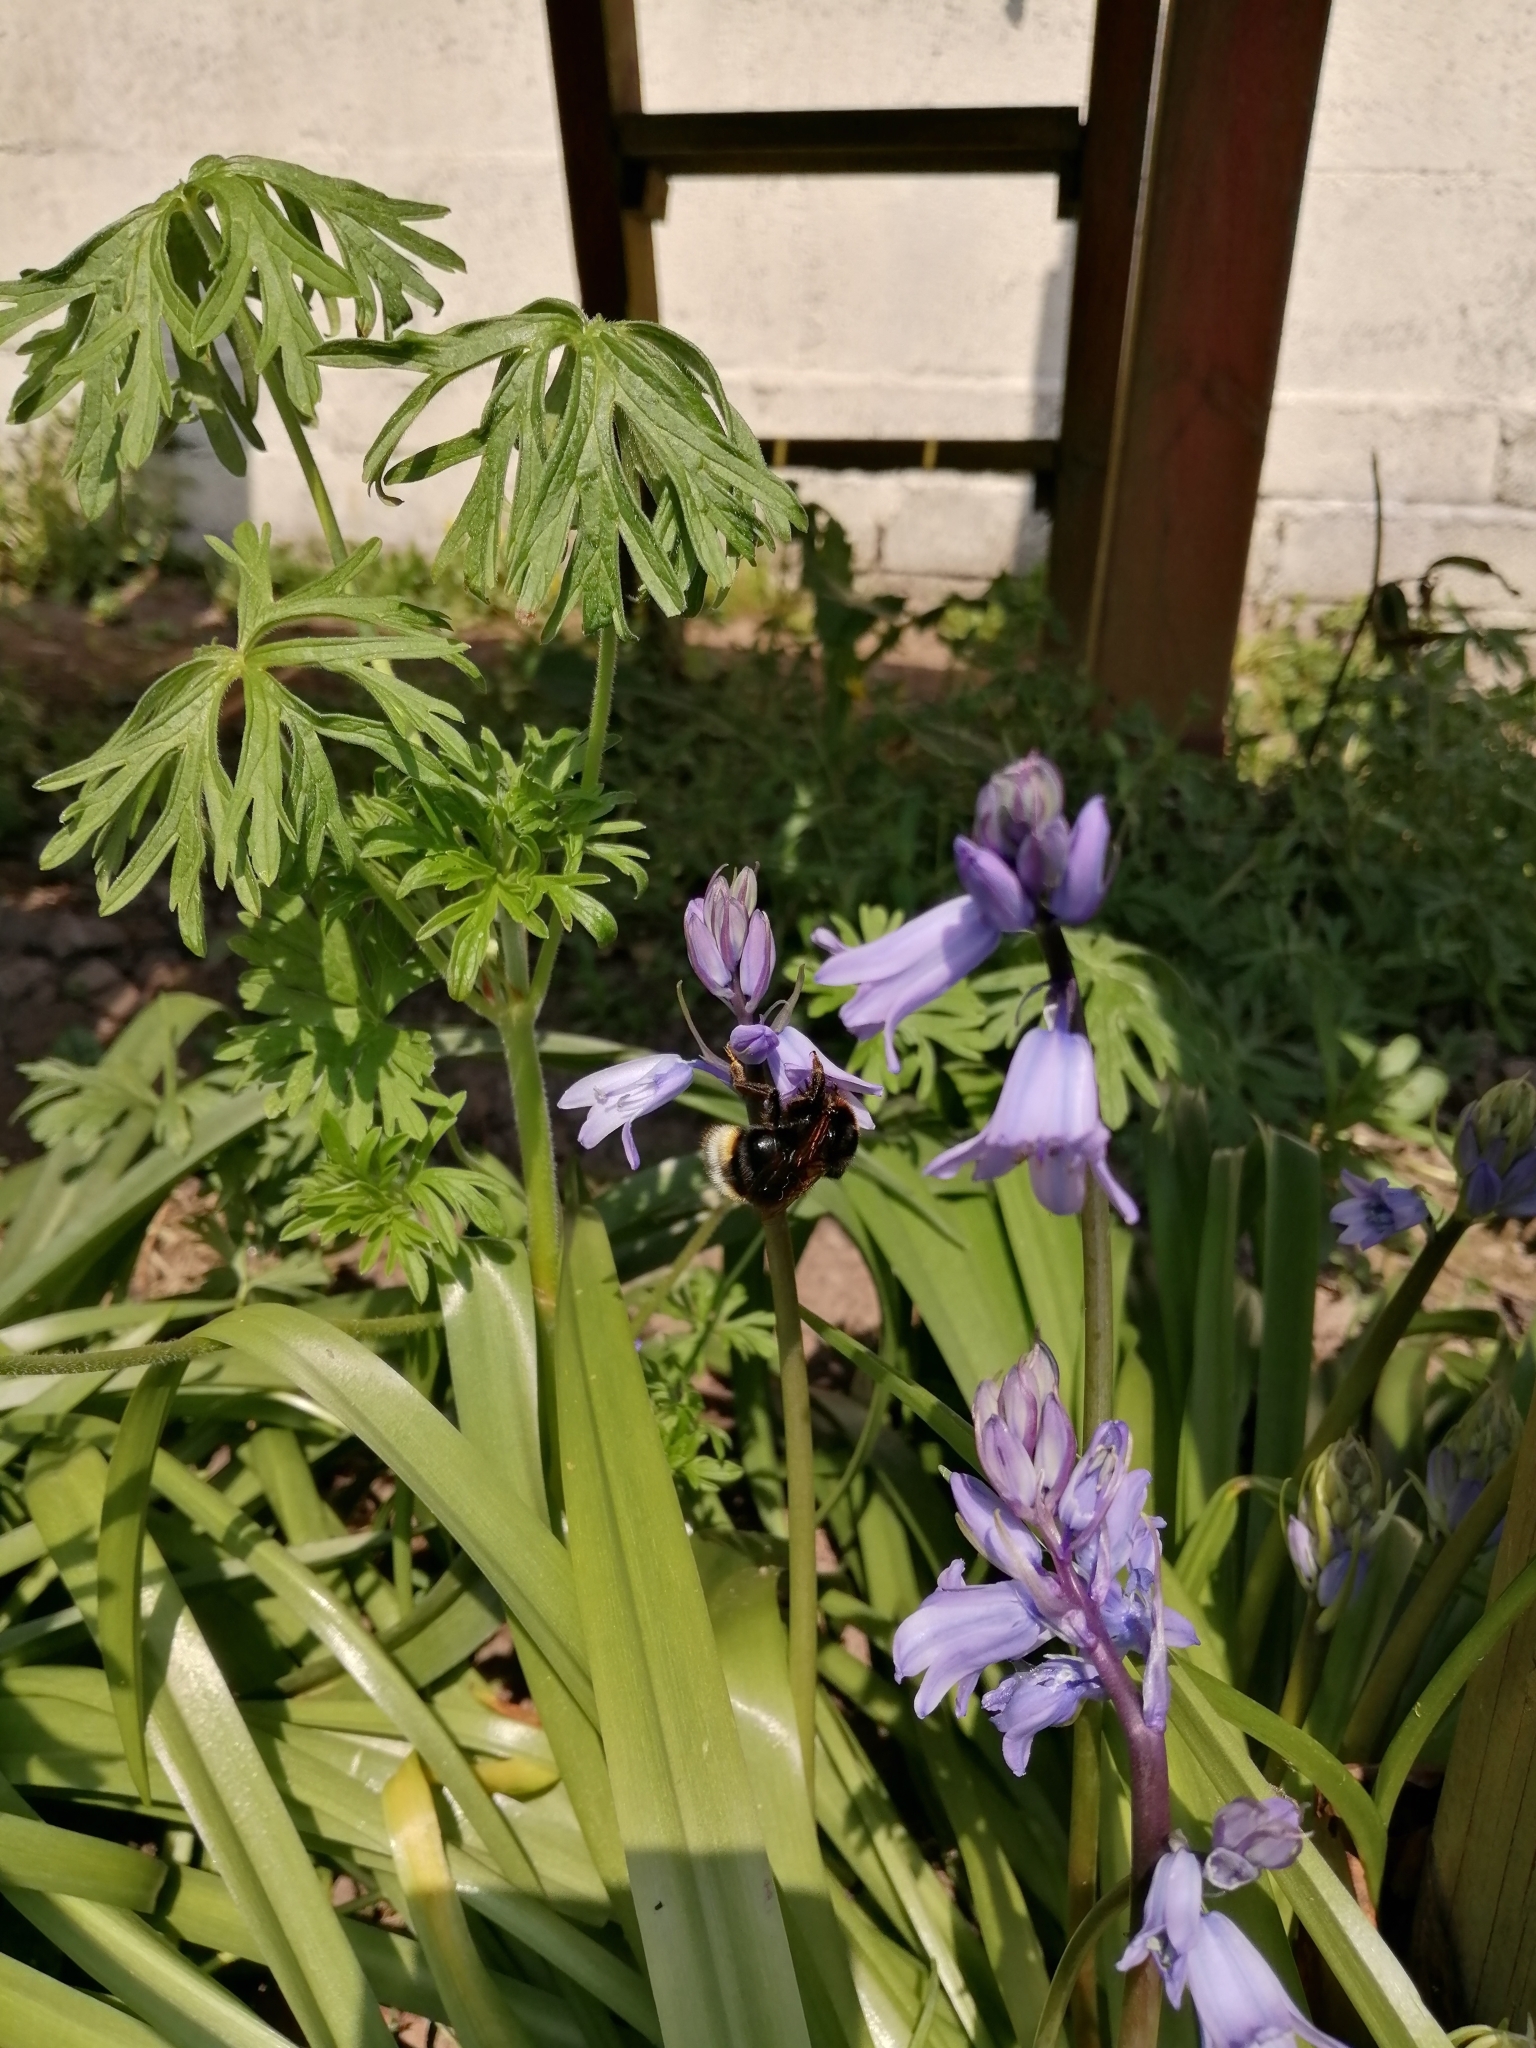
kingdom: Animalia
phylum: Arthropoda
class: Insecta
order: Hymenoptera
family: Apidae
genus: Bombus
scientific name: Bombus vestalis
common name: Vestal cuckoo bee
